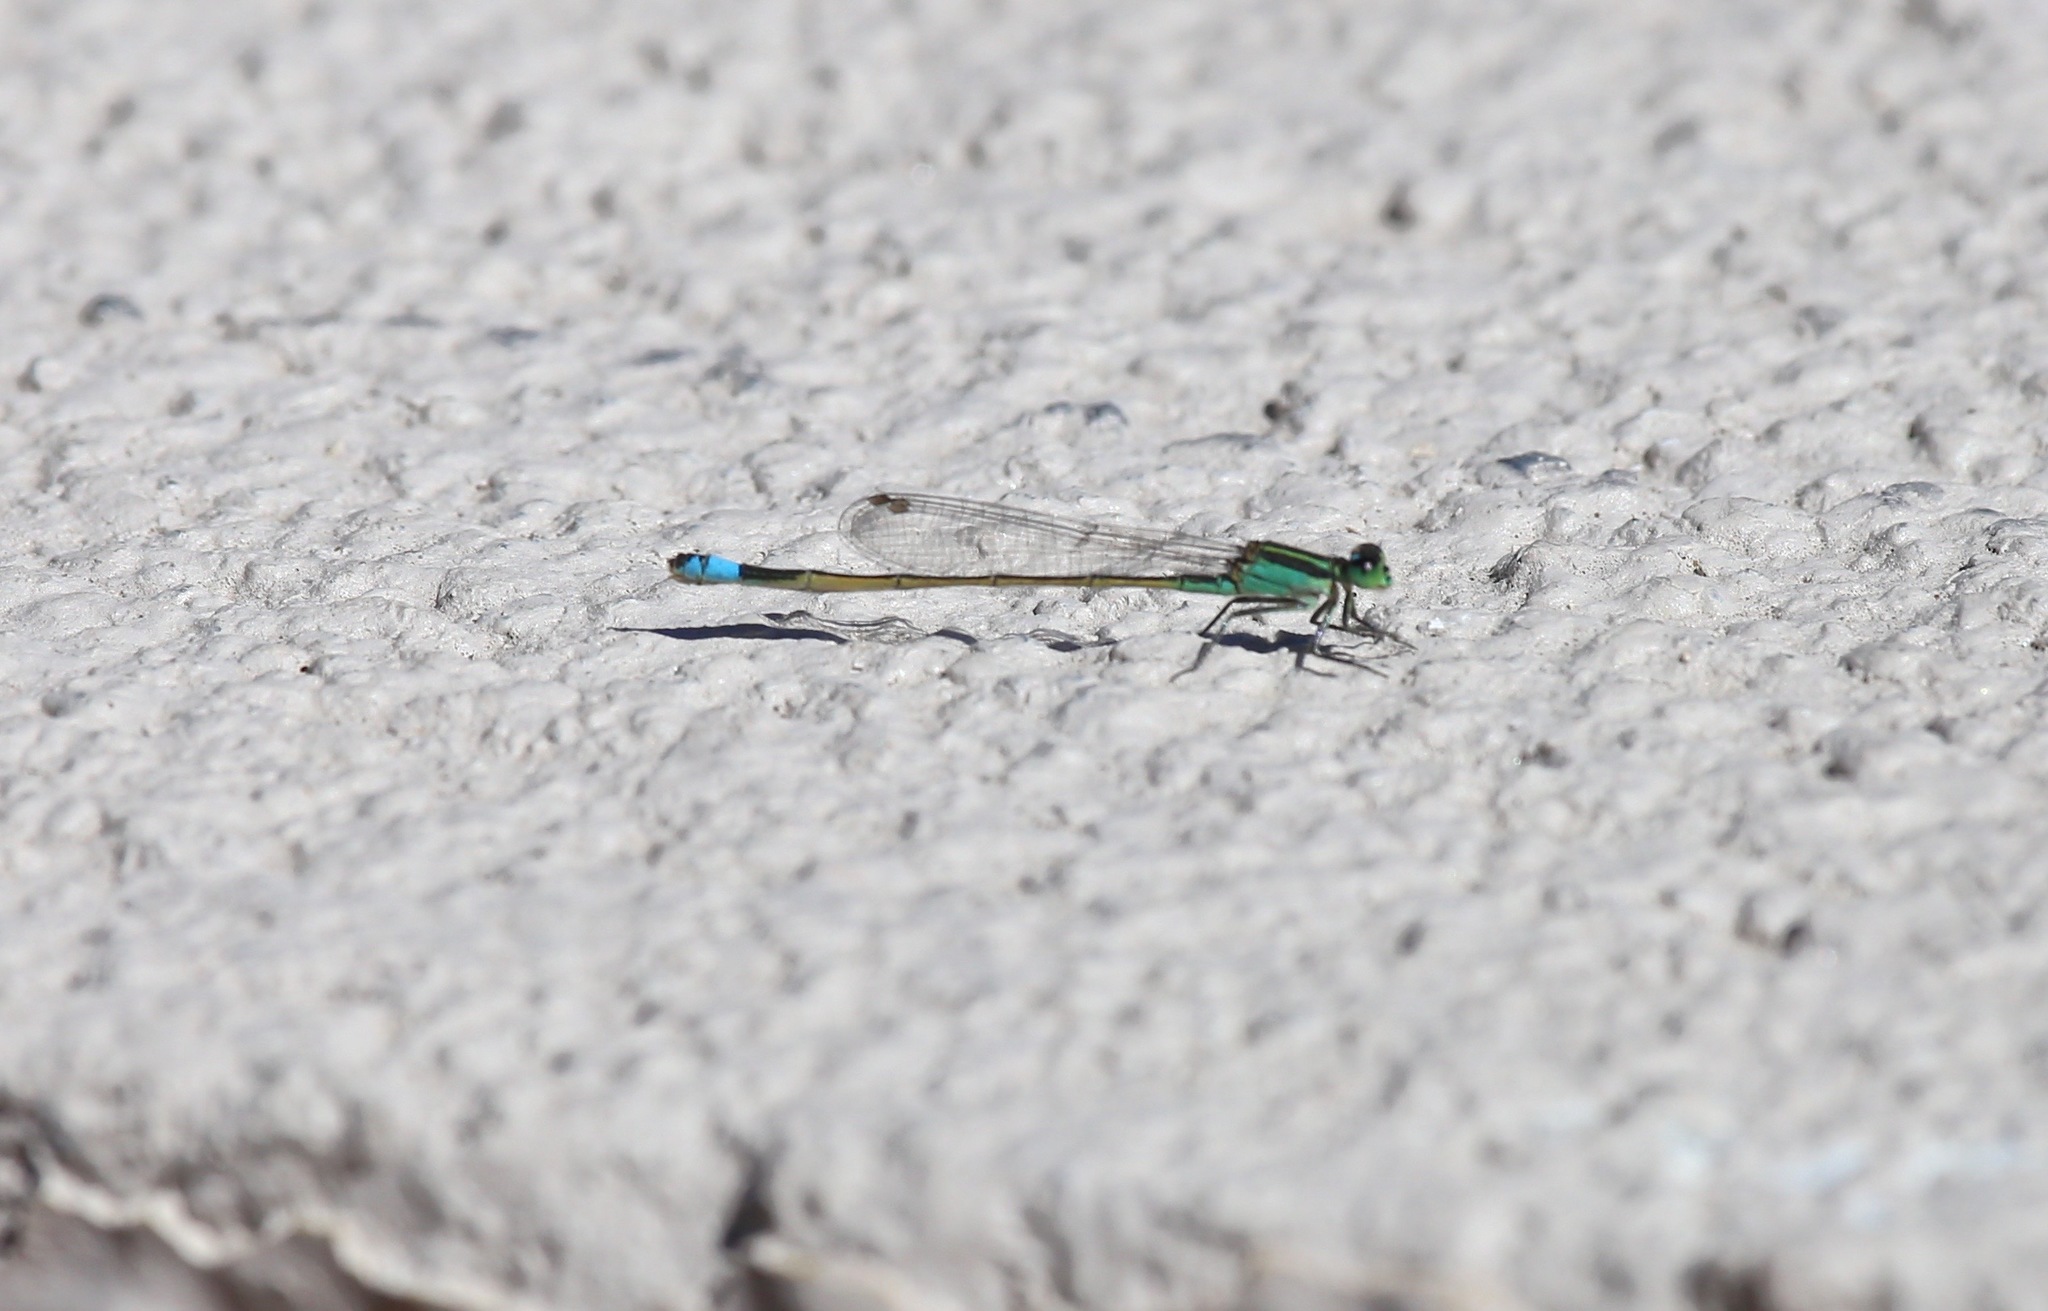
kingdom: Animalia
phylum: Arthropoda
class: Insecta
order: Odonata
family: Coenagrionidae
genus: Ischnura
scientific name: Ischnura ramburii
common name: Rambur's forktail
